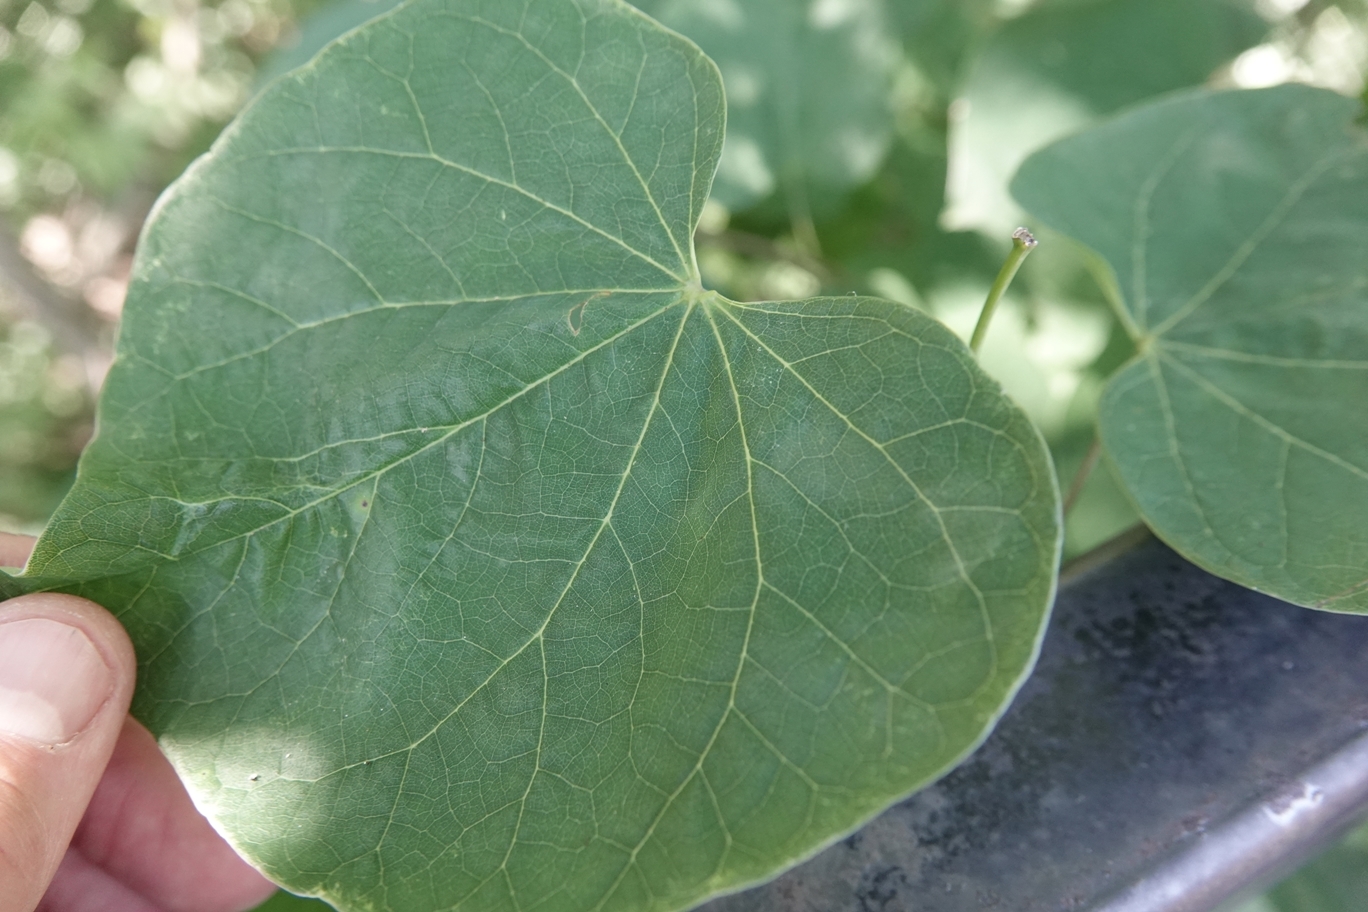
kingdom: Plantae
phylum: Tracheophyta
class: Magnoliopsida
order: Fabales
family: Fabaceae
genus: Cercis
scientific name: Cercis canadensis
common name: Eastern redbud
